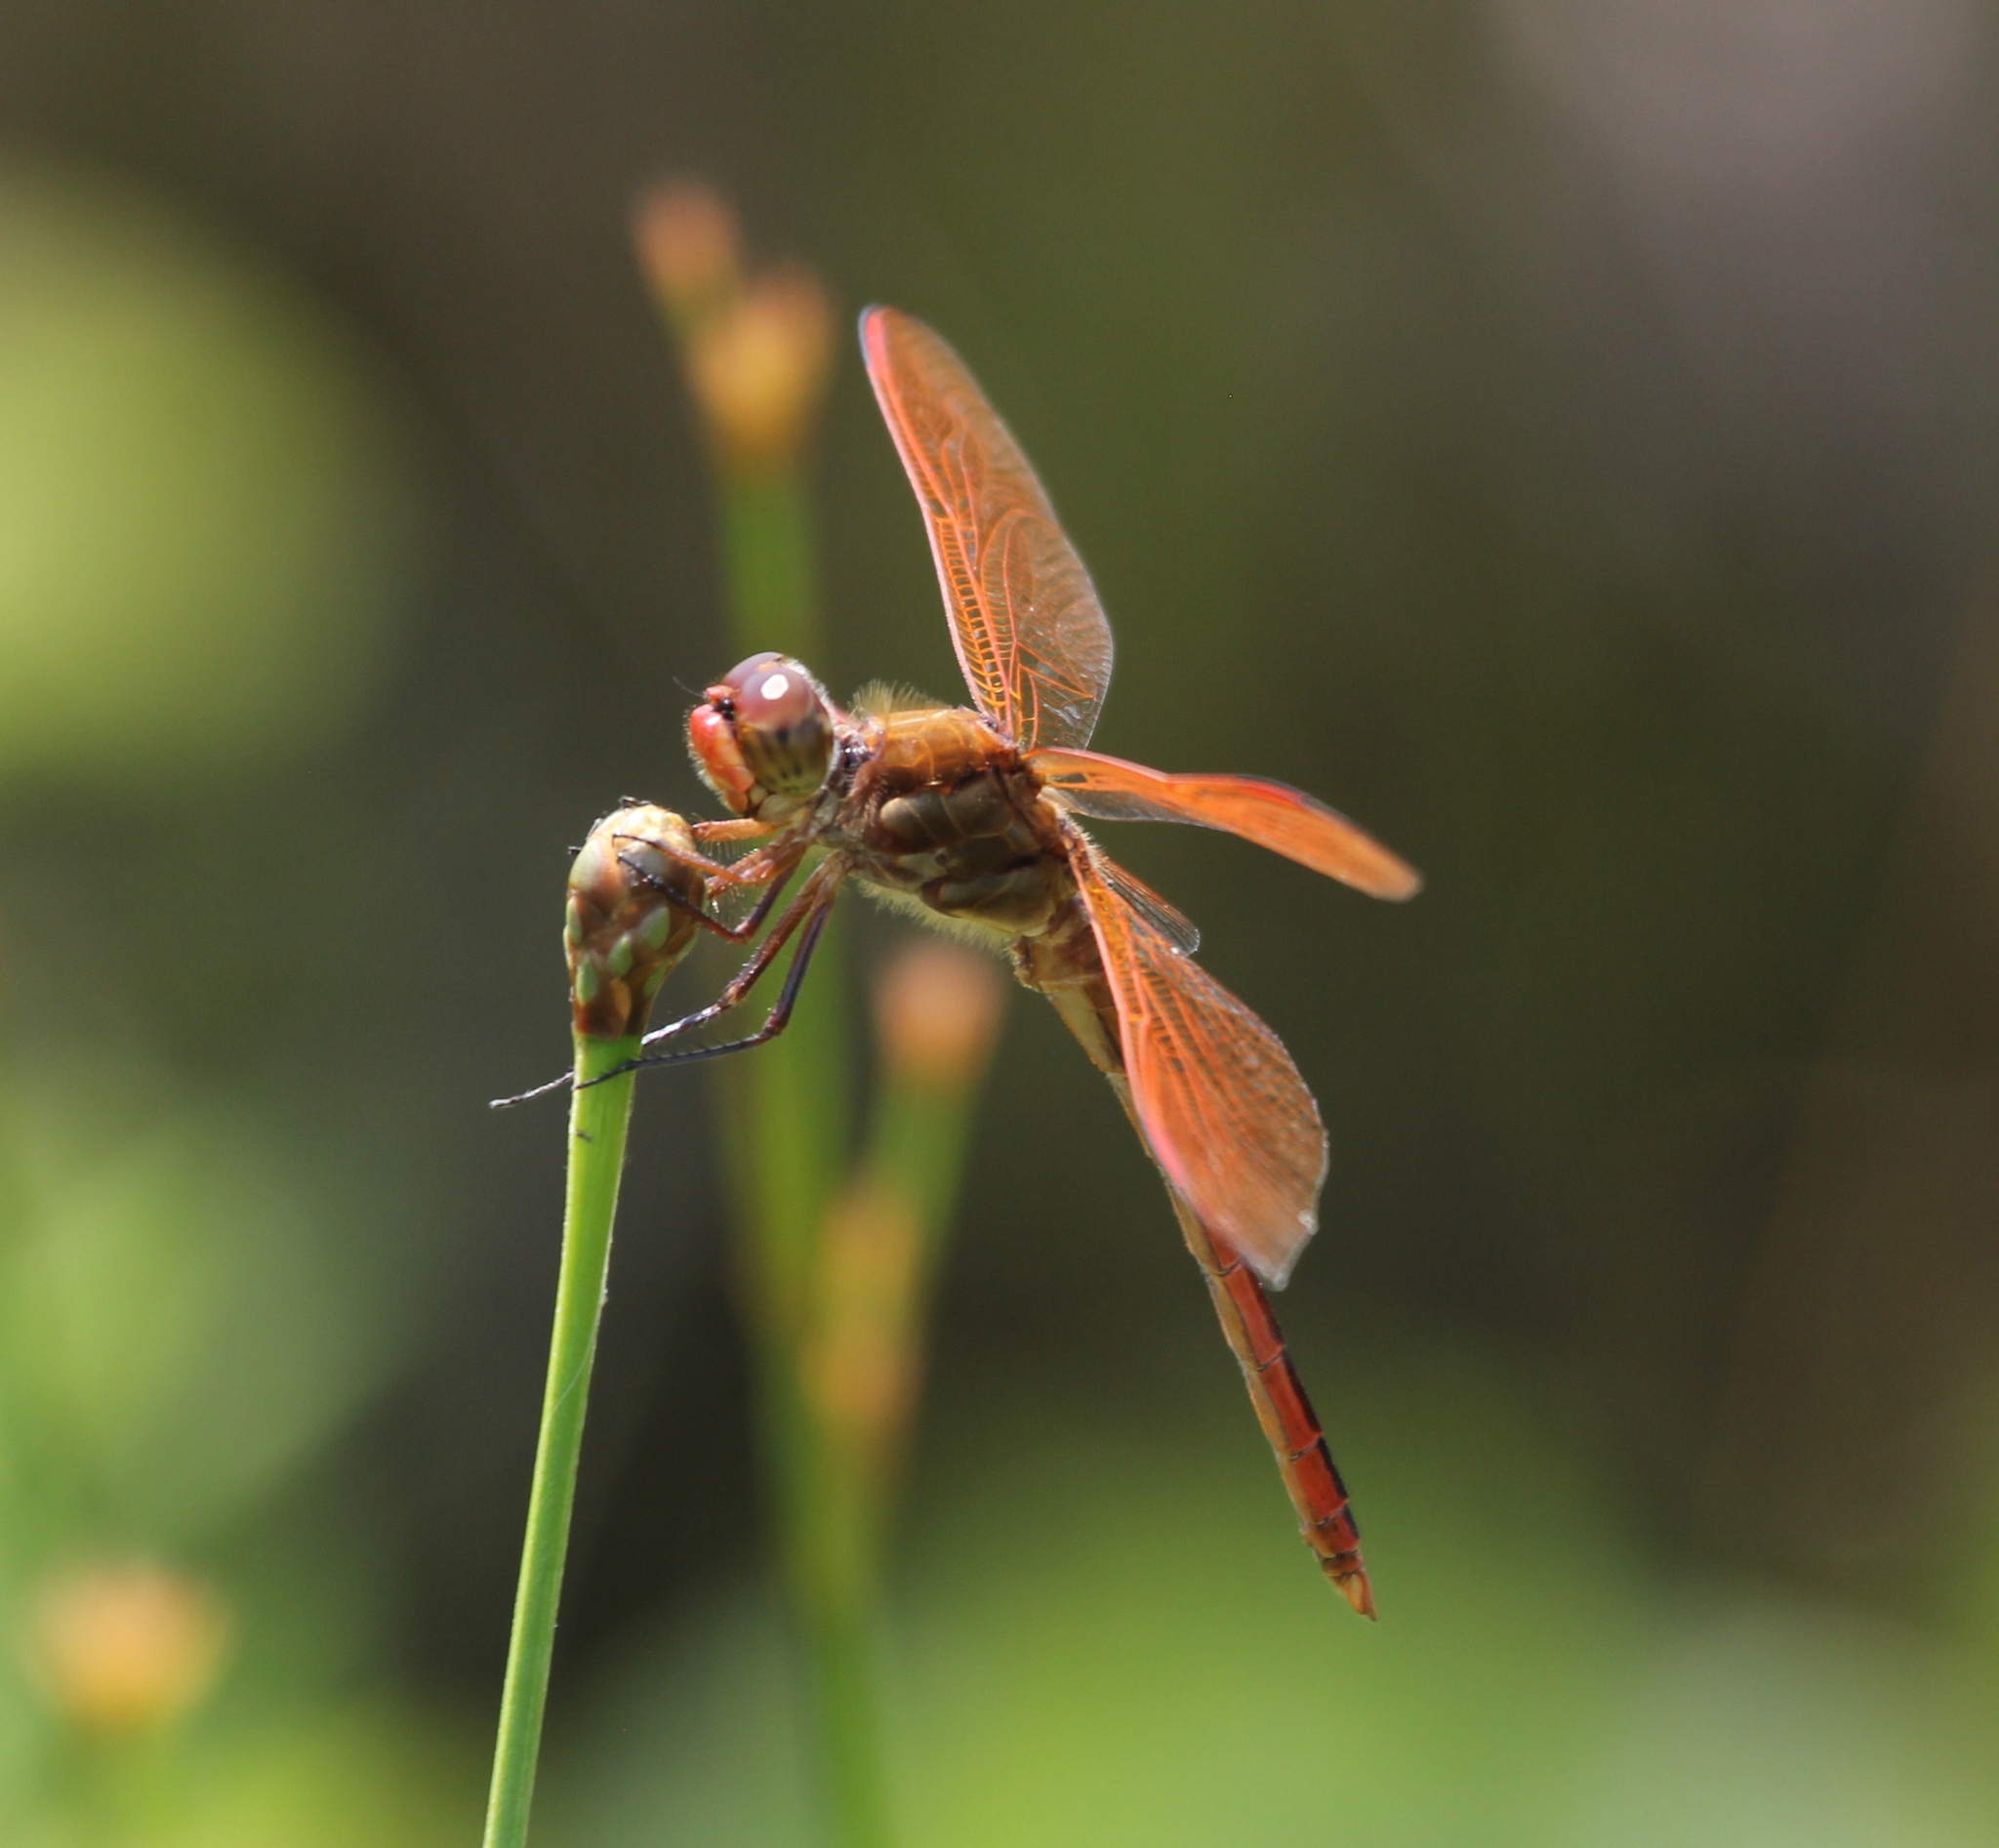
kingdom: Animalia
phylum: Arthropoda
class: Insecta
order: Odonata
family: Libellulidae
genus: Libellula
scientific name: Libellula auripennis
